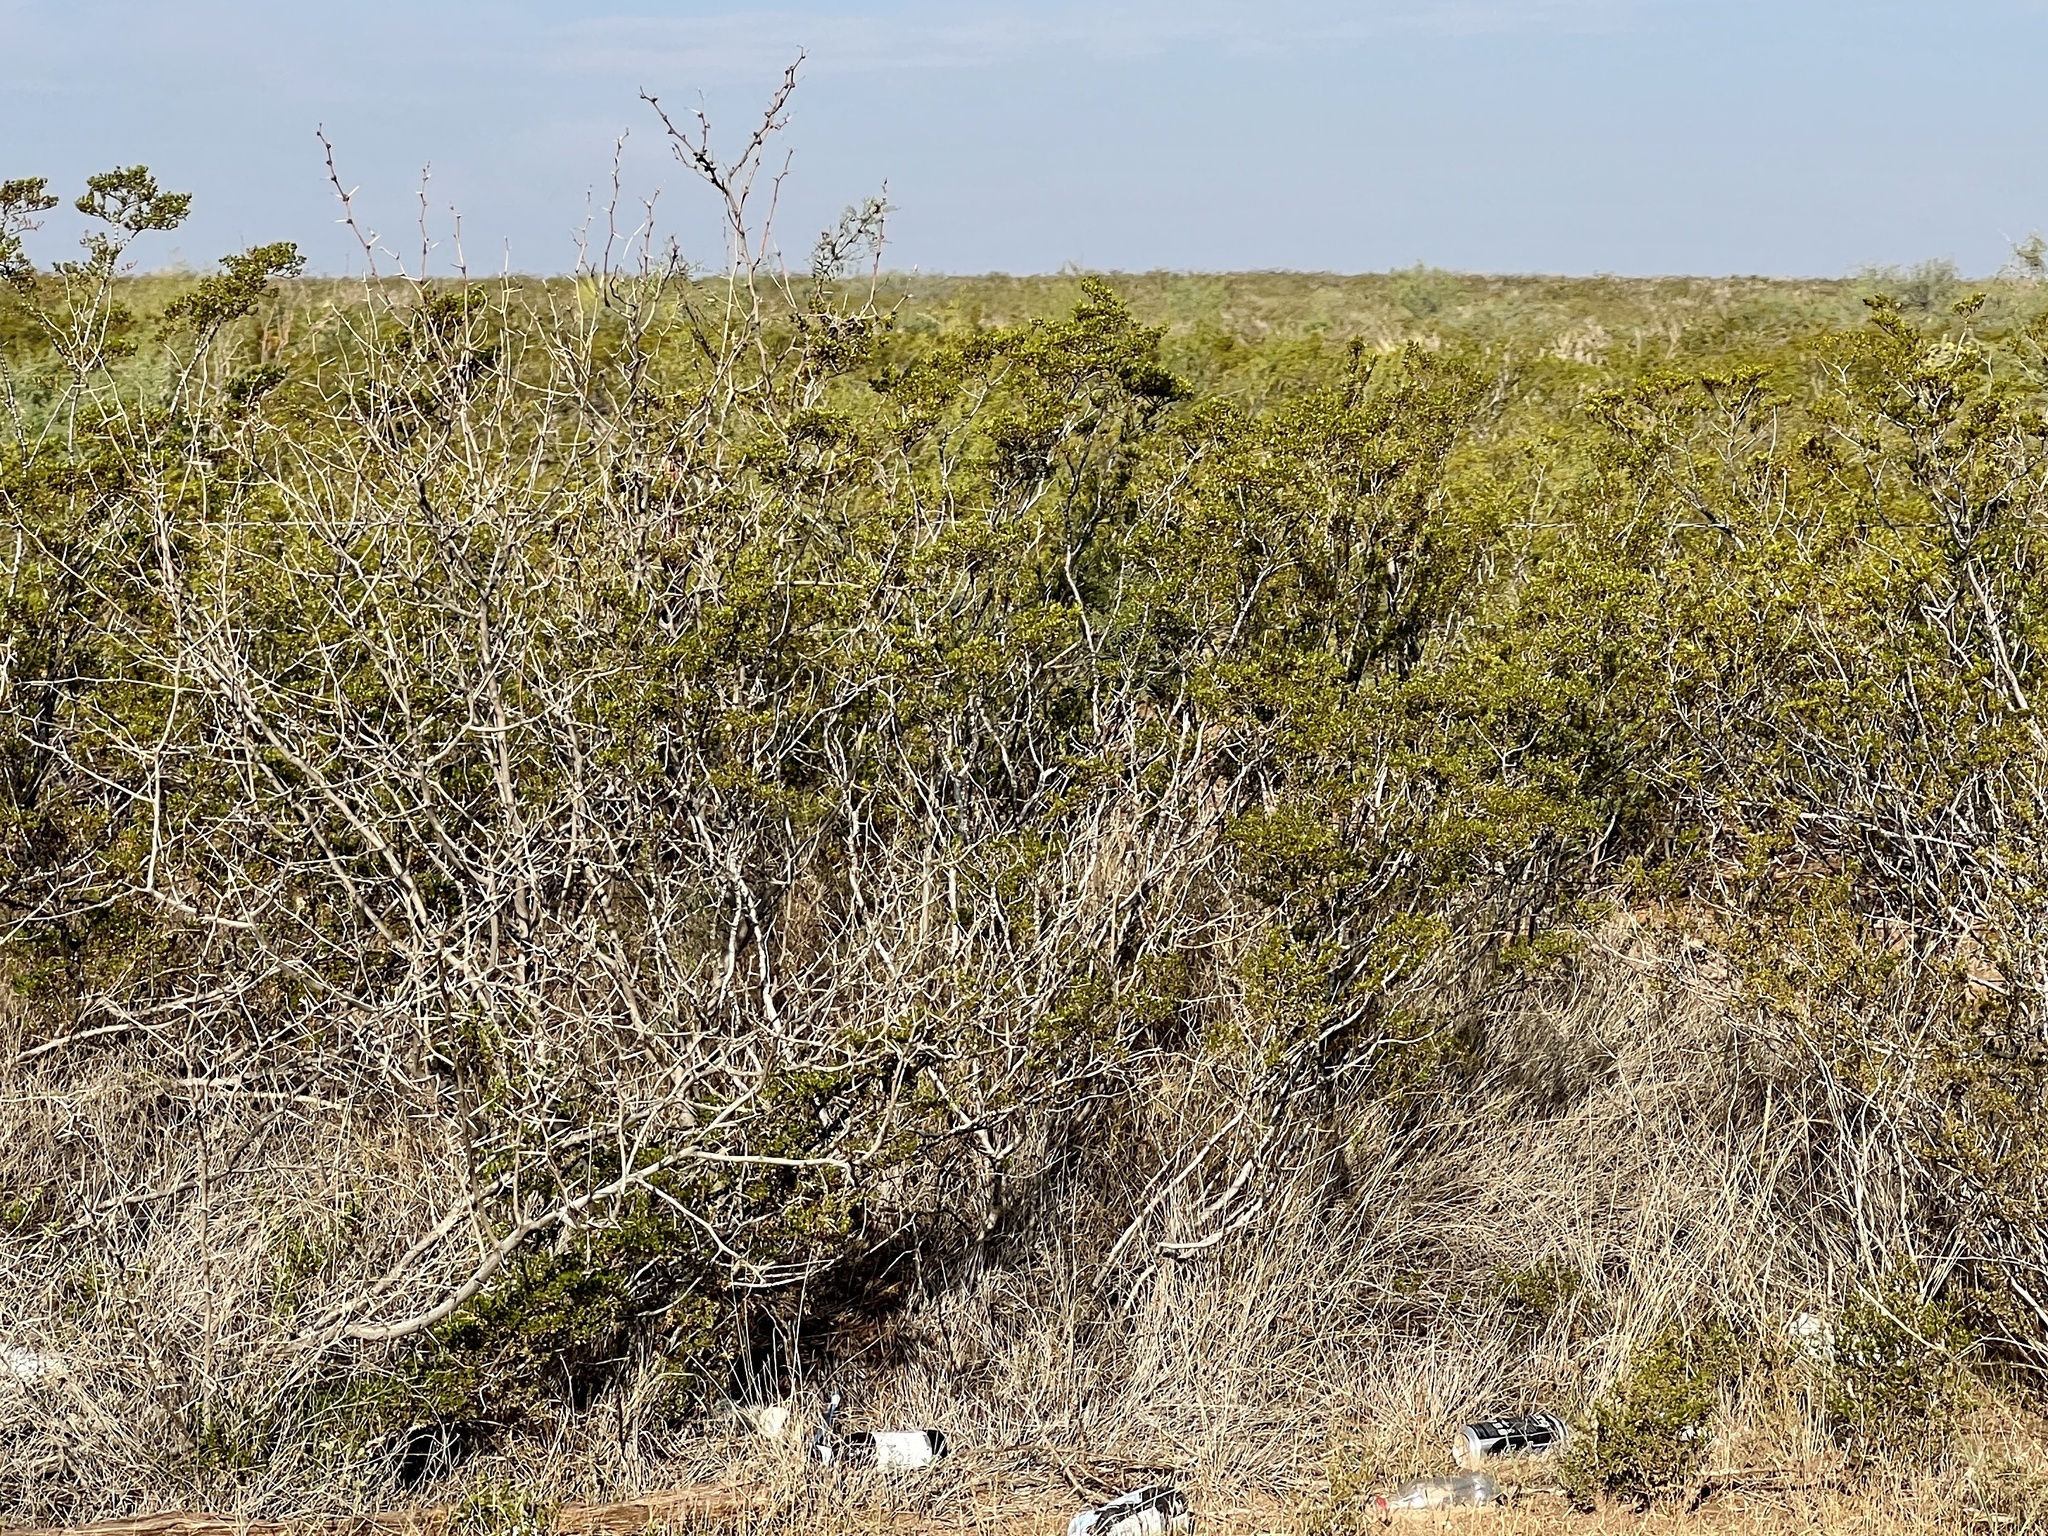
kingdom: Plantae
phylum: Tracheophyta
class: Magnoliopsida
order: Zygophyllales
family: Zygophyllaceae
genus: Larrea
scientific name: Larrea tridentata
